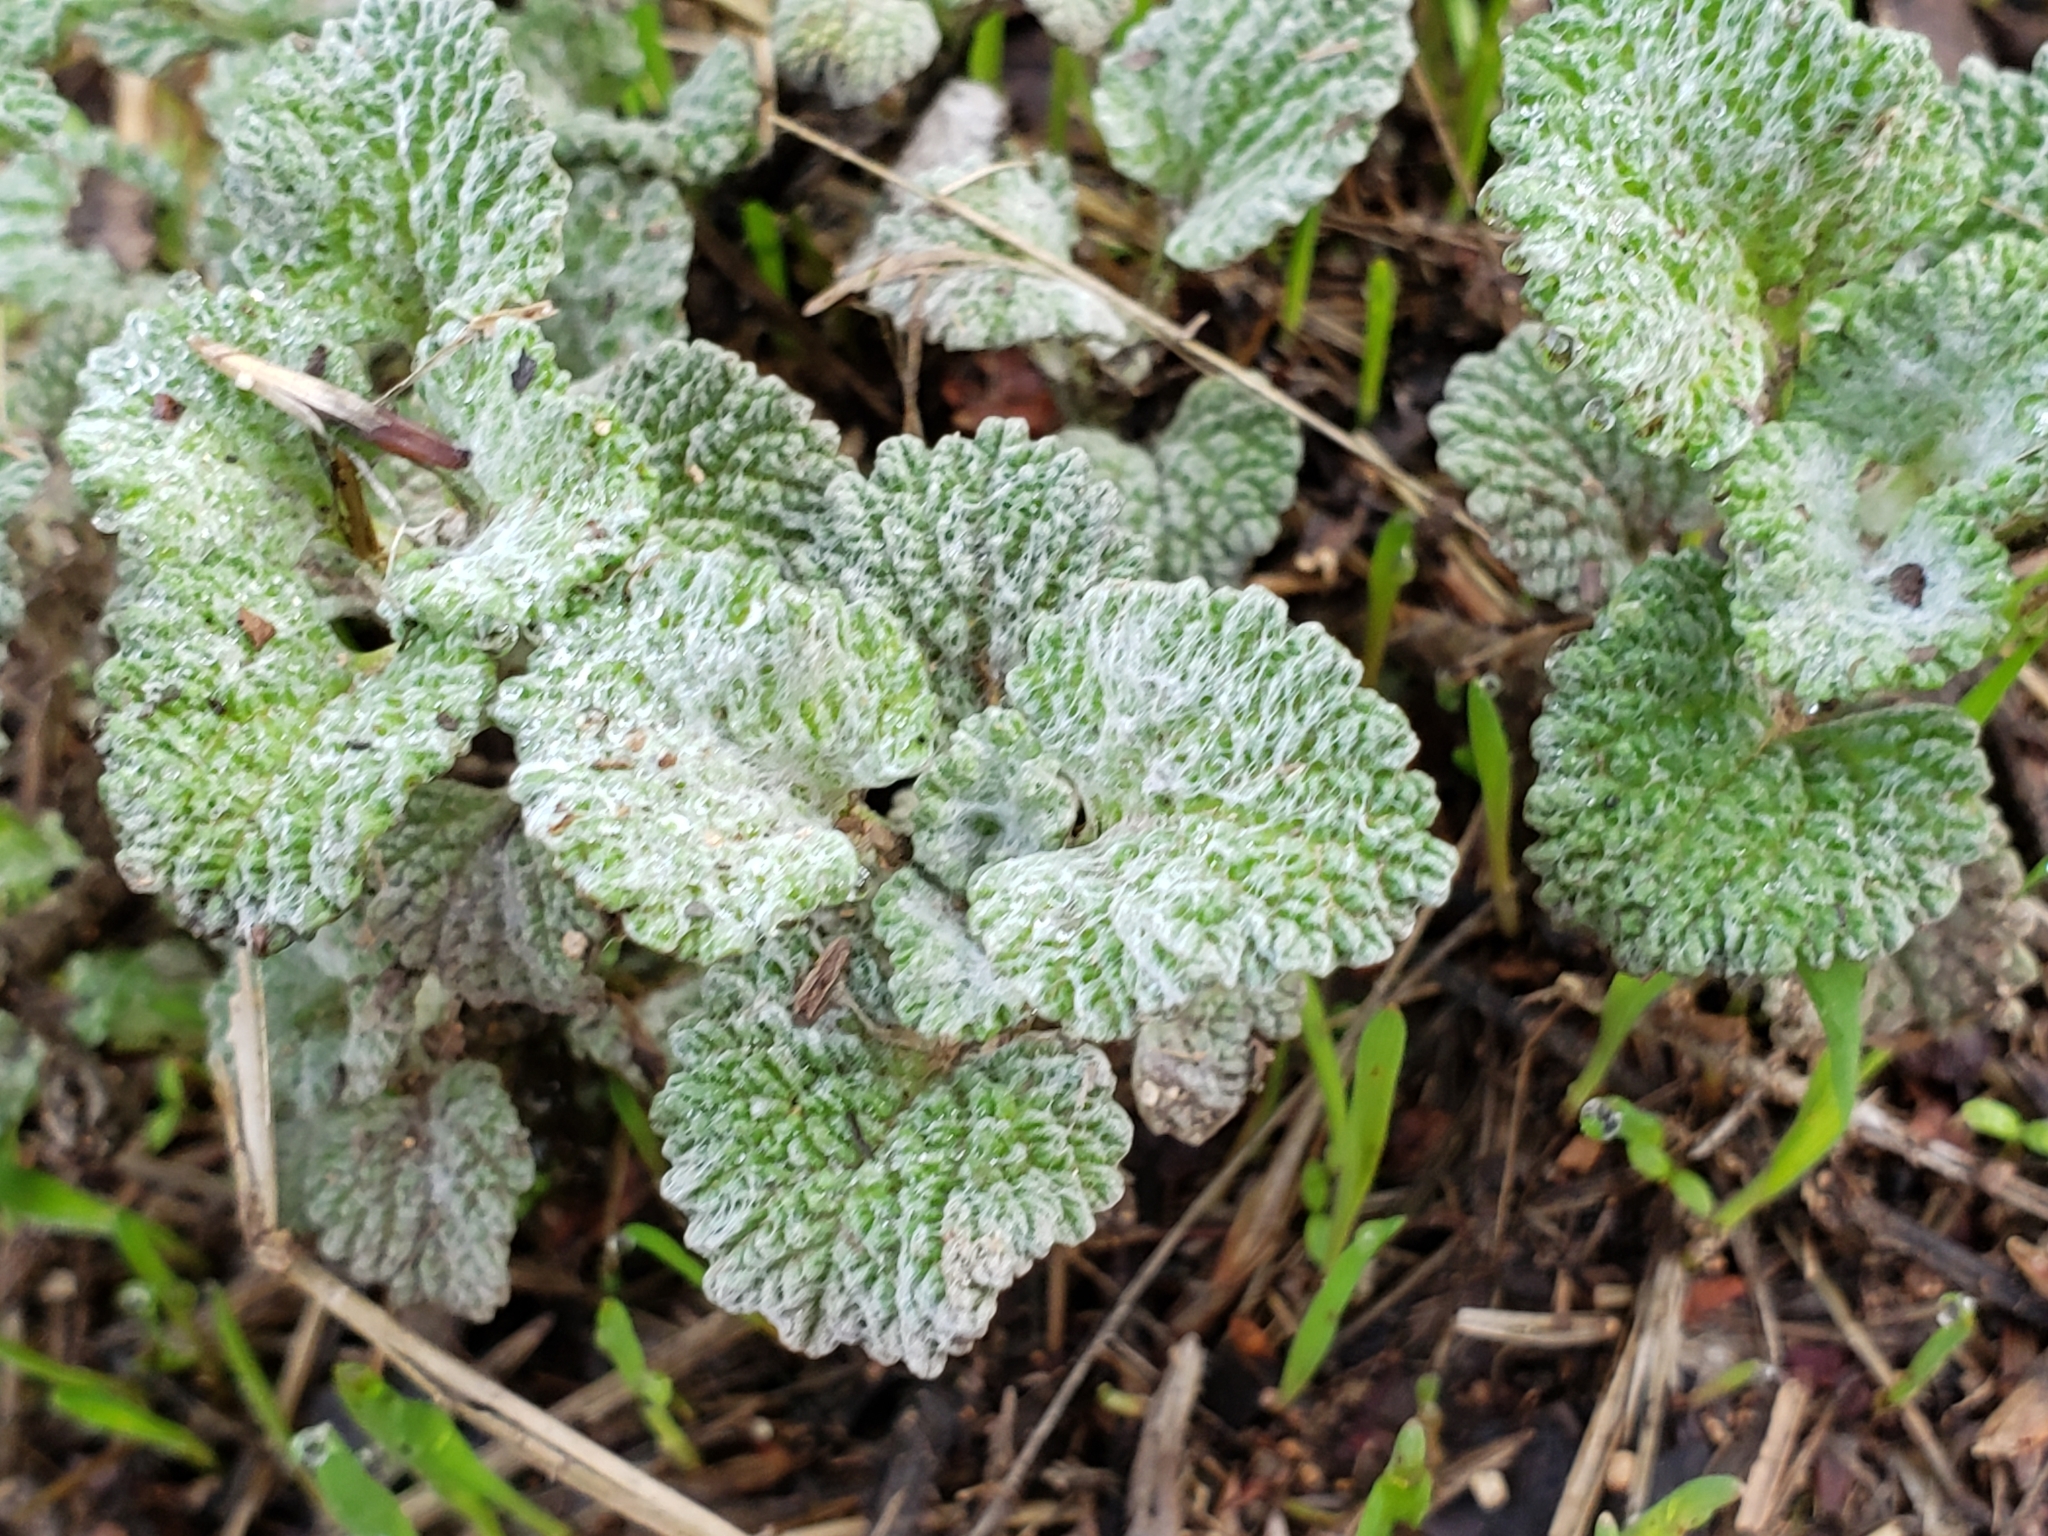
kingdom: Plantae
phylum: Tracheophyta
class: Magnoliopsida
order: Lamiales
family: Lamiaceae
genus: Marrubium
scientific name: Marrubium vulgare
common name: Horehound
